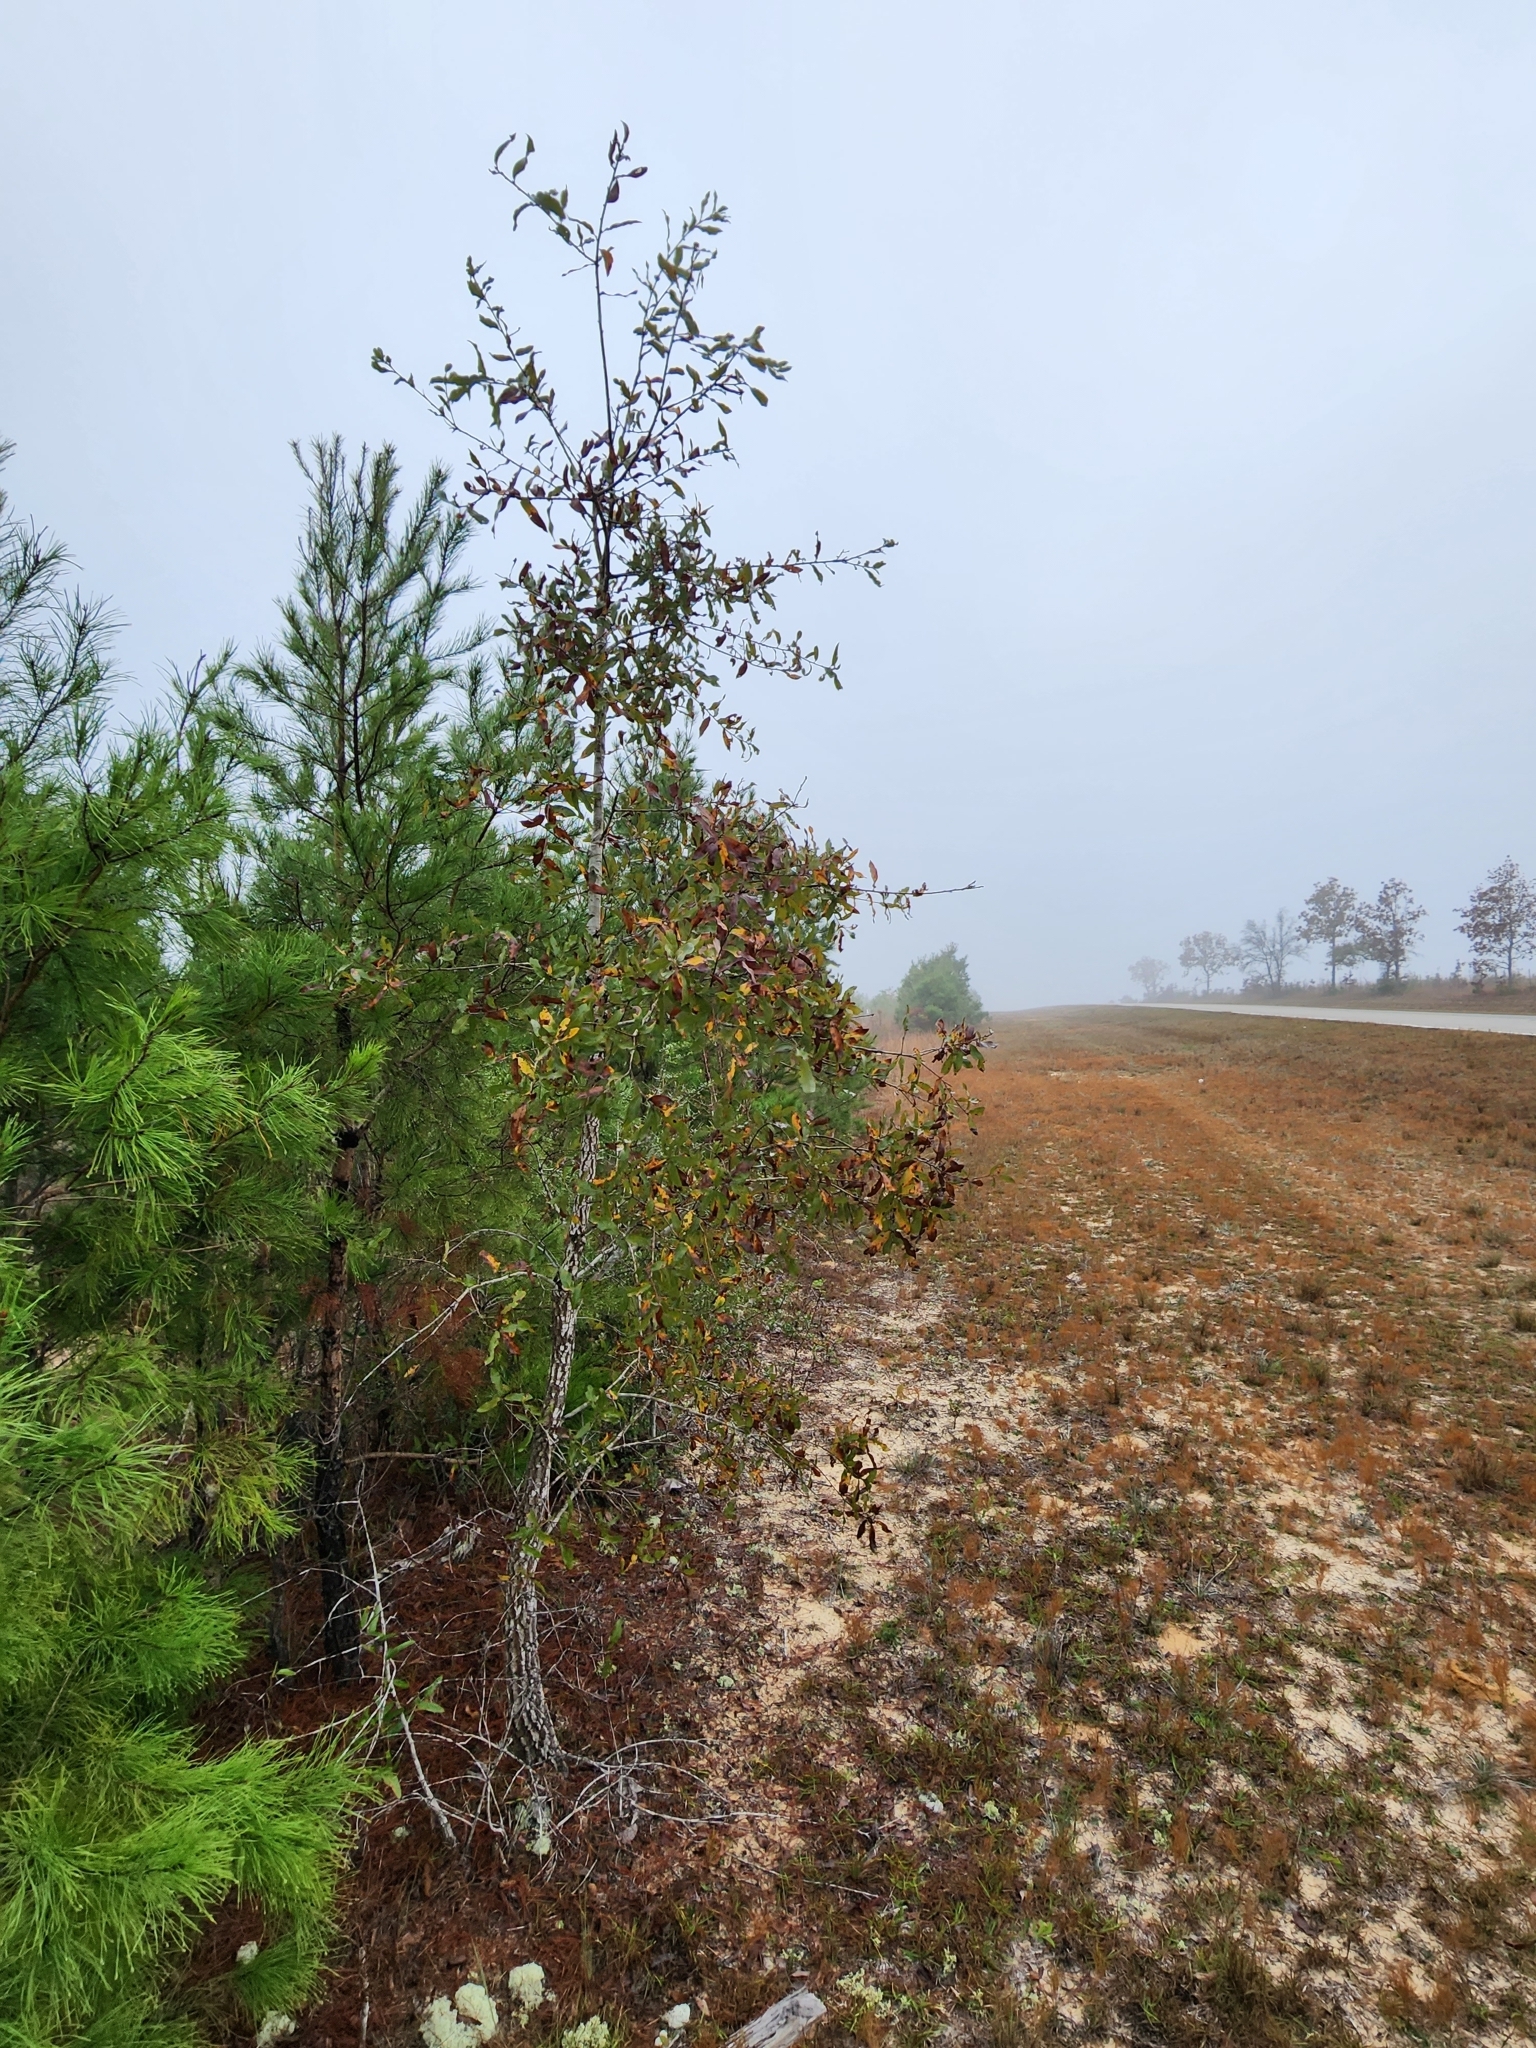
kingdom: Plantae
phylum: Tracheophyta
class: Magnoliopsida
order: Fagales
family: Fagaceae
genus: Quercus
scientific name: Quercus incana
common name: Bluejack oak
